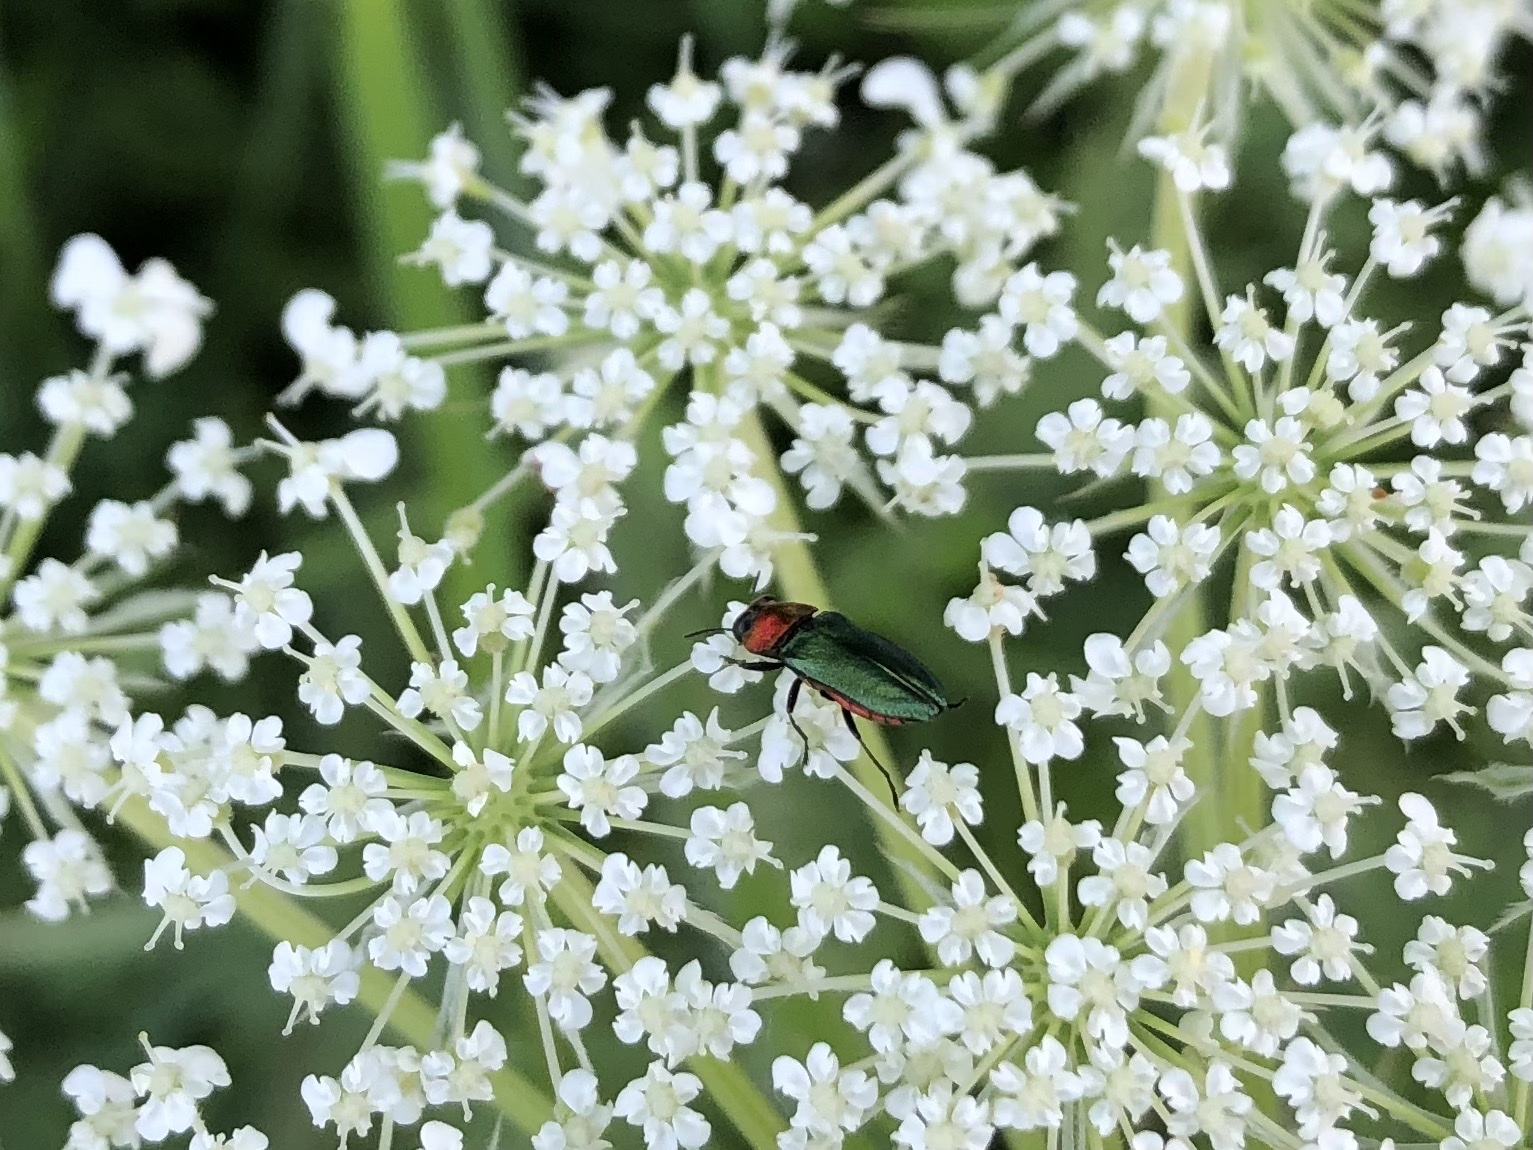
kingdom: Animalia
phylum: Arthropoda
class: Insecta
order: Coleoptera
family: Buprestidae
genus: Anthaxia
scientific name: Anthaxia nitidula
